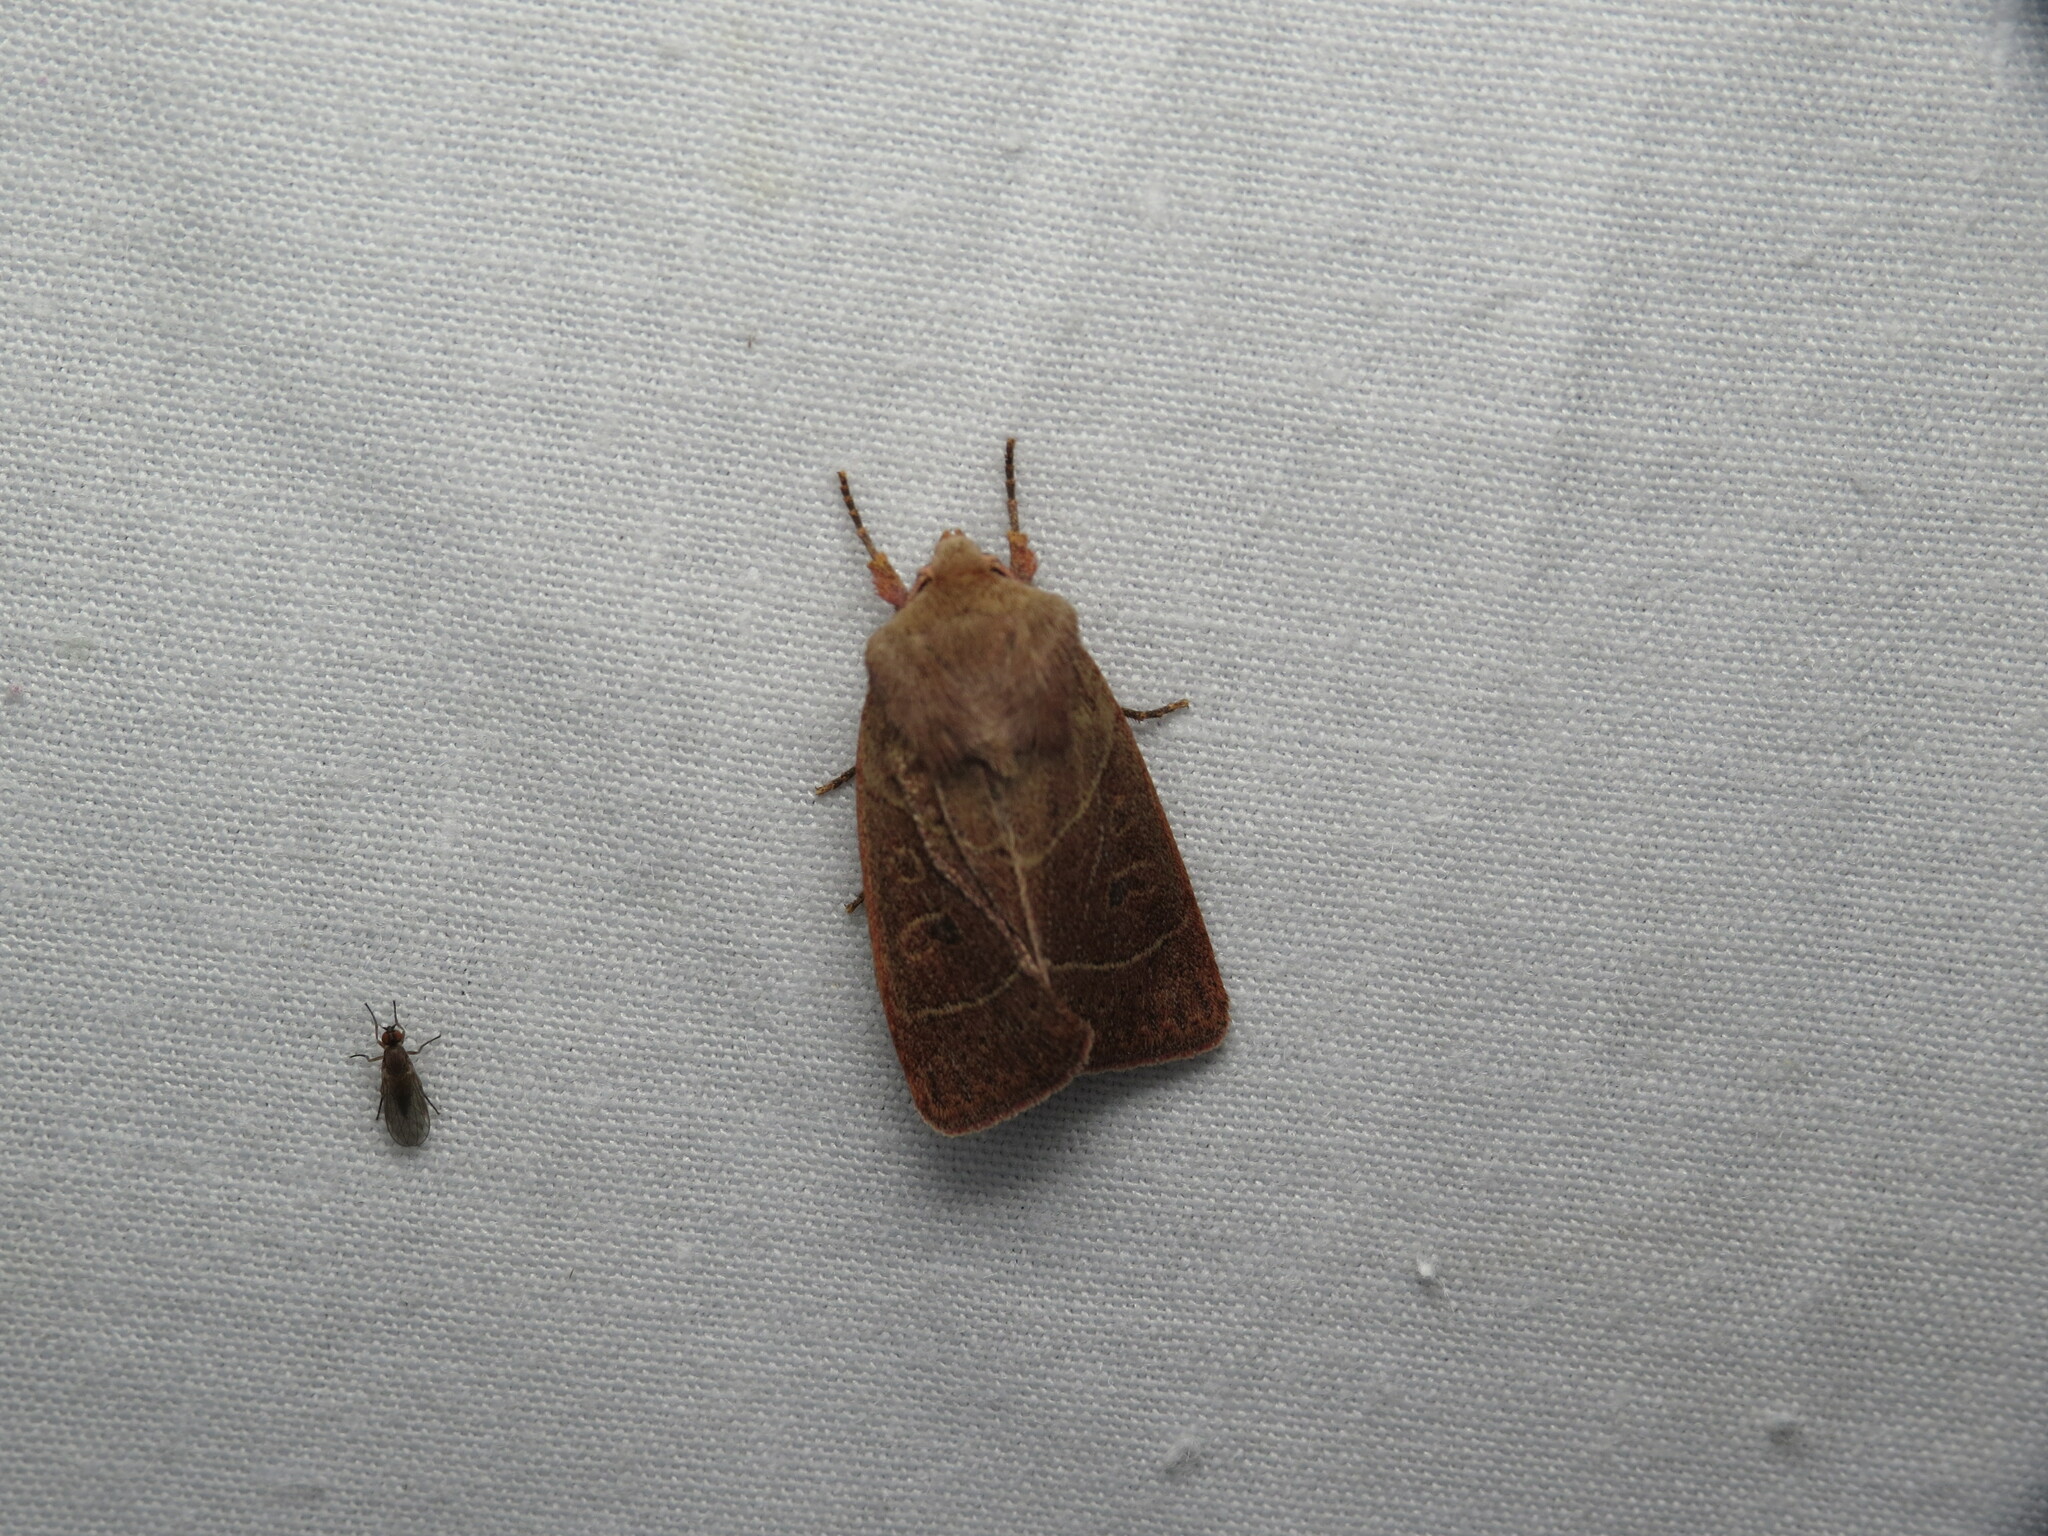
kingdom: Animalia
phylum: Arthropoda
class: Insecta
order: Lepidoptera
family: Noctuidae
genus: Ulolonche
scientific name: Ulolonche culea
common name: Sheathed quaker
